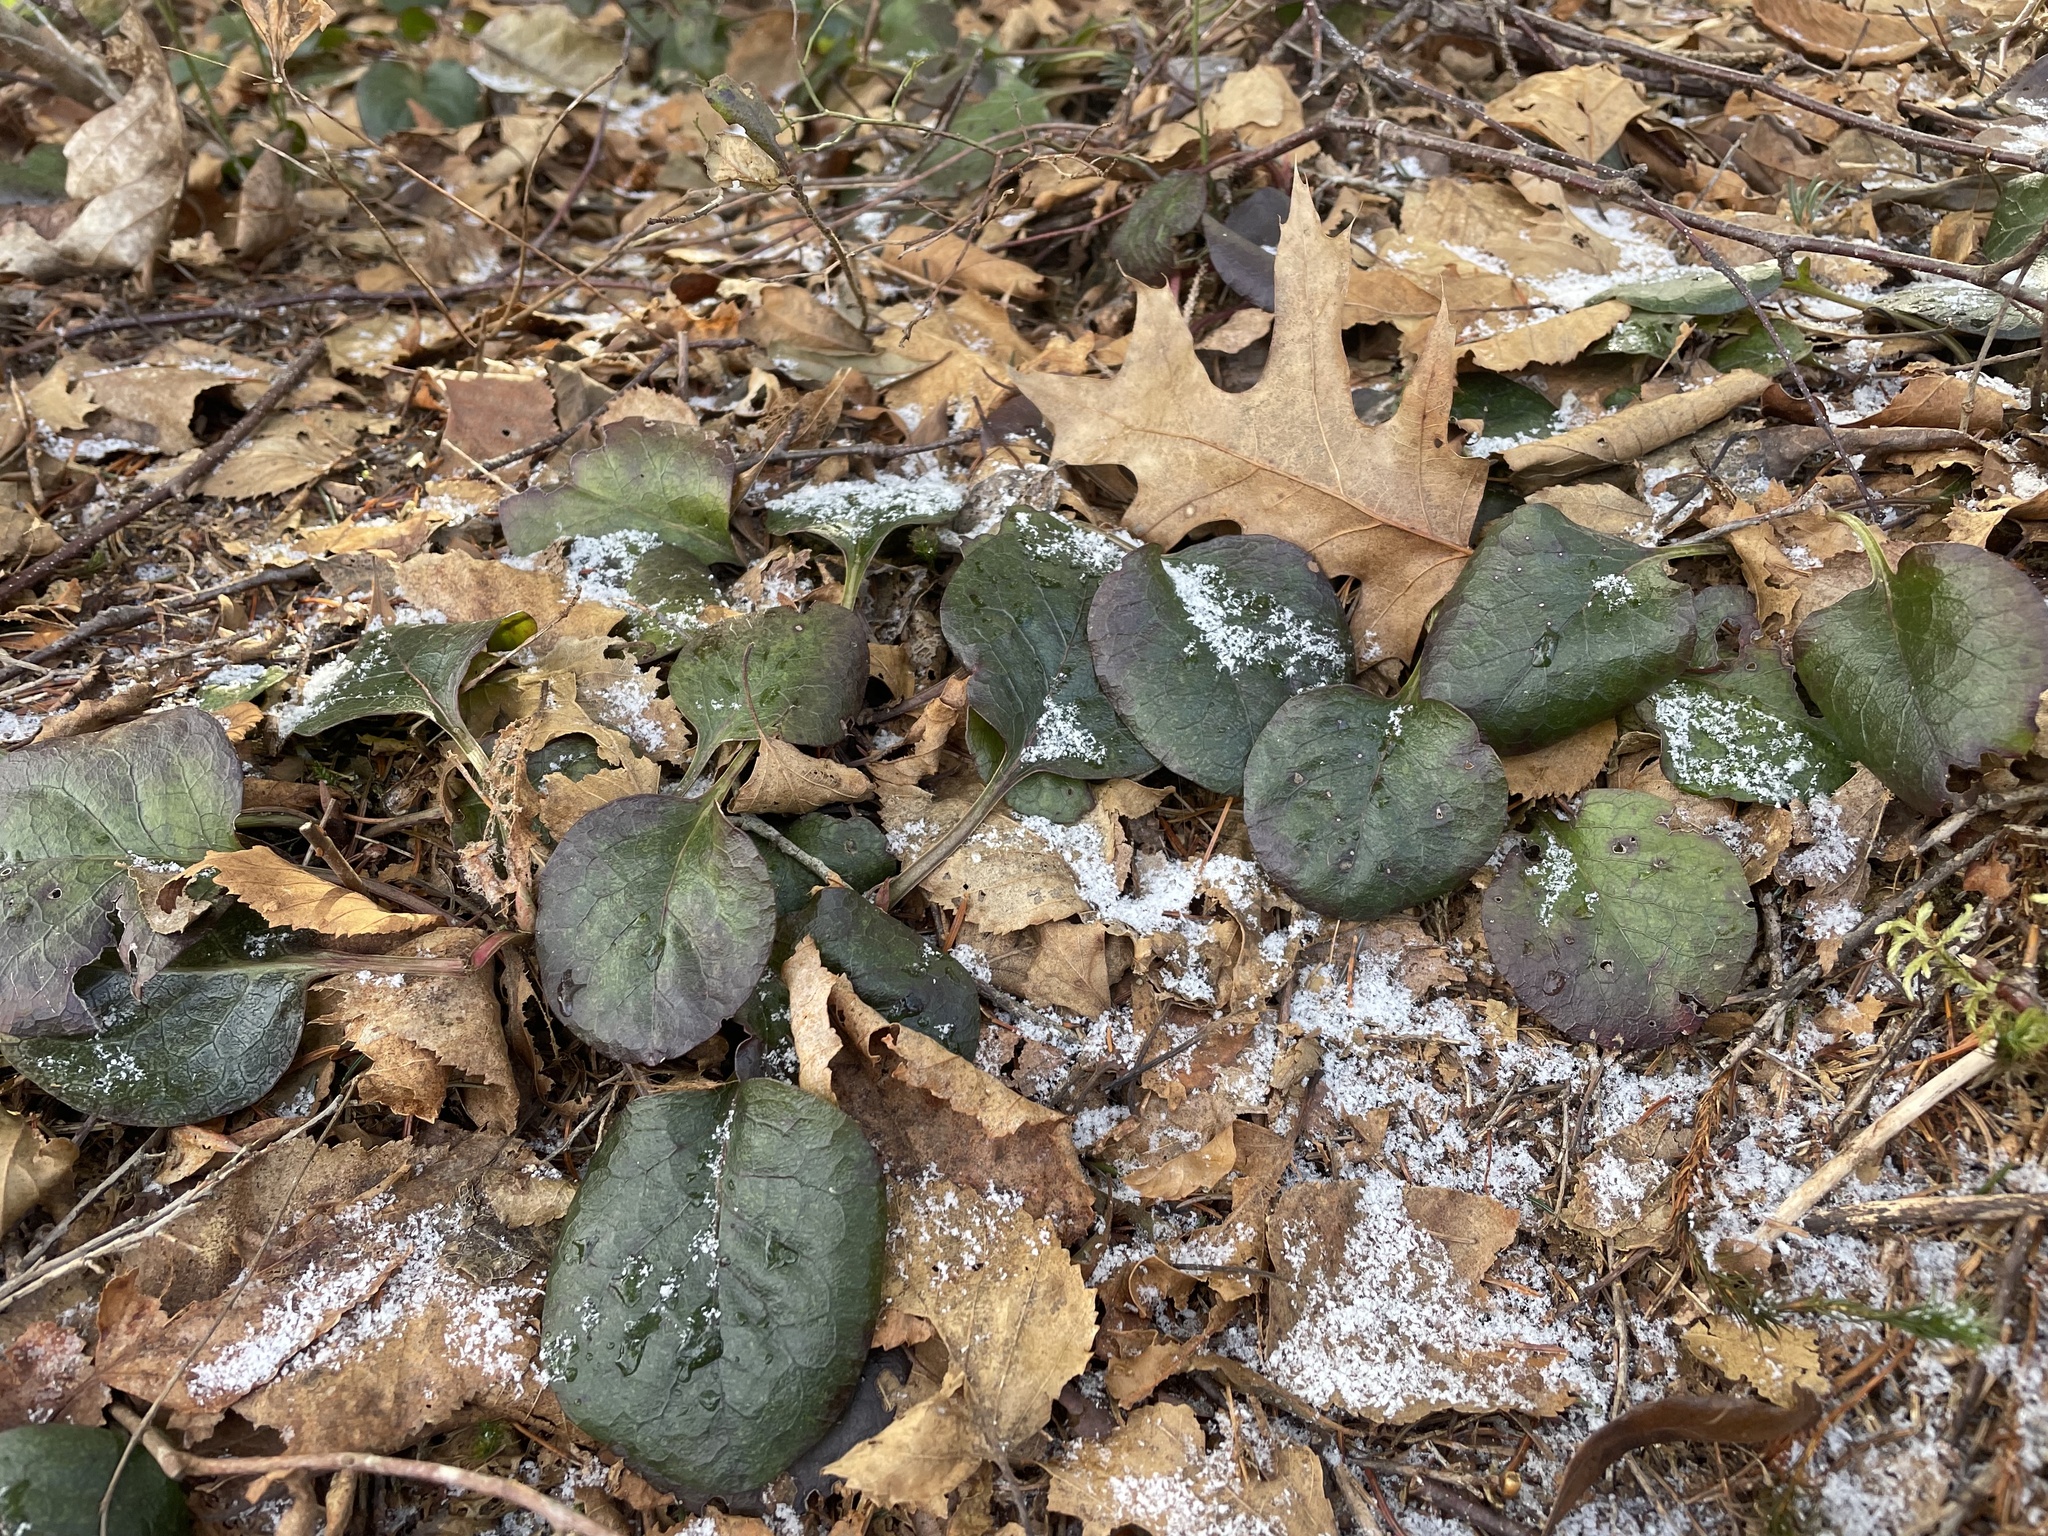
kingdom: Plantae
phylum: Tracheophyta
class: Magnoliopsida
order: Ericales
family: Ericaceae
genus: Pyrola
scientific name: Pyrola americana
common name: American wintergreen
